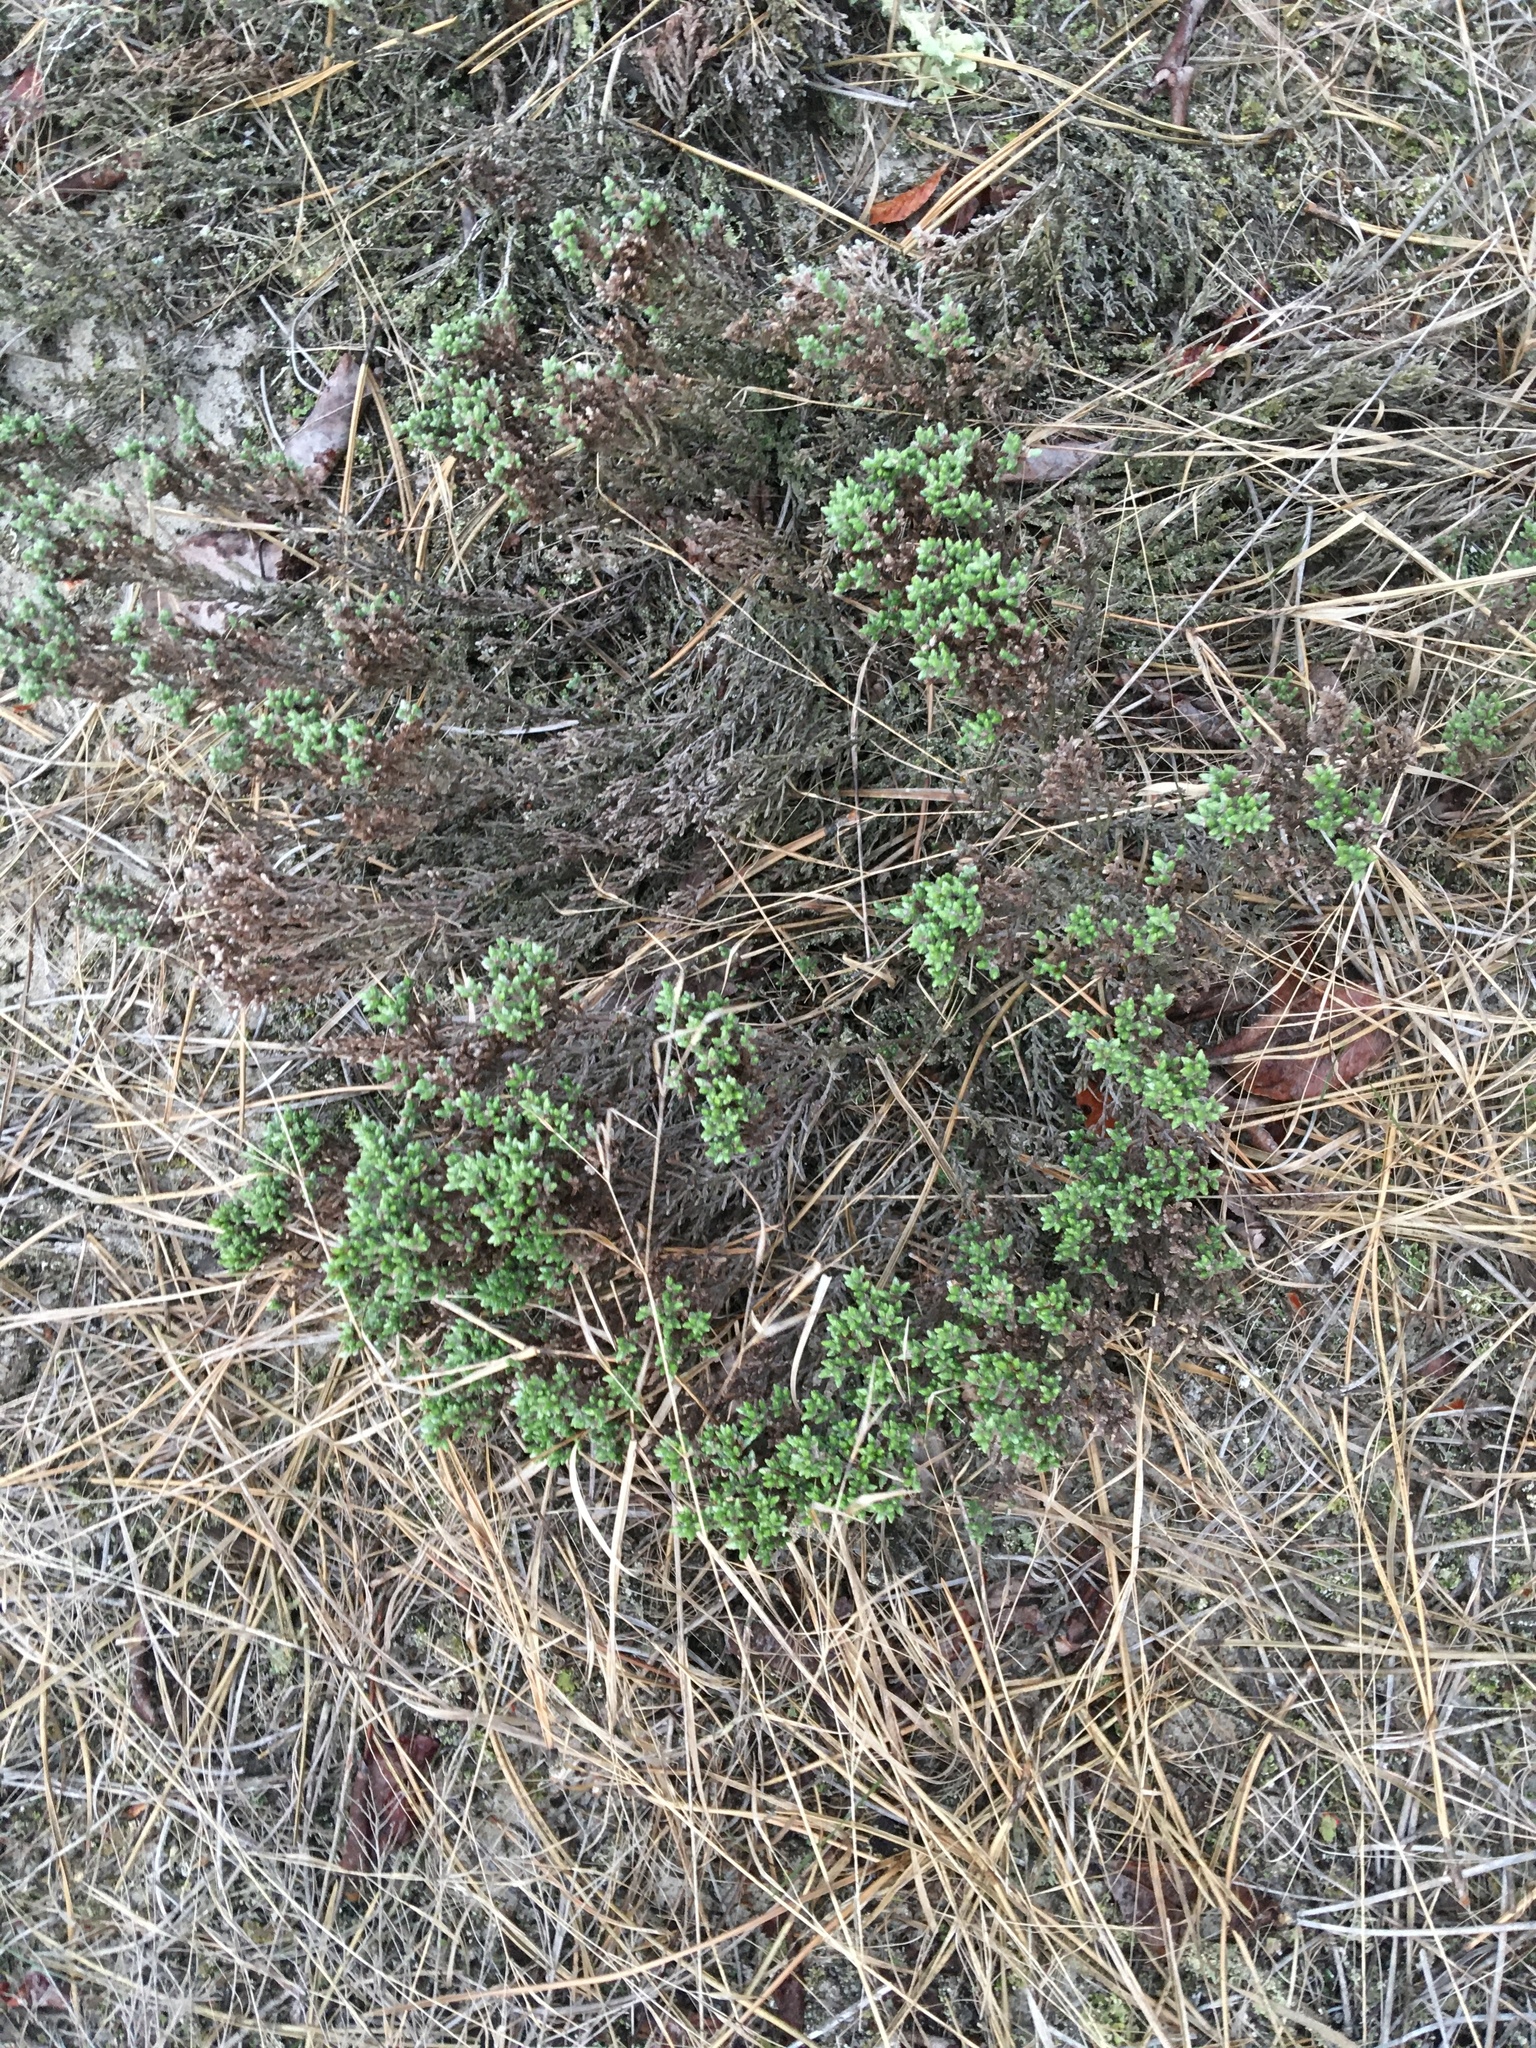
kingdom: Plantae
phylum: Tracheophyta
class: Magnoliopsida
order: Malvales
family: Cistaceae
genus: Hudsonia
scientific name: Hudsonia tomentosa
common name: Beach-heath
